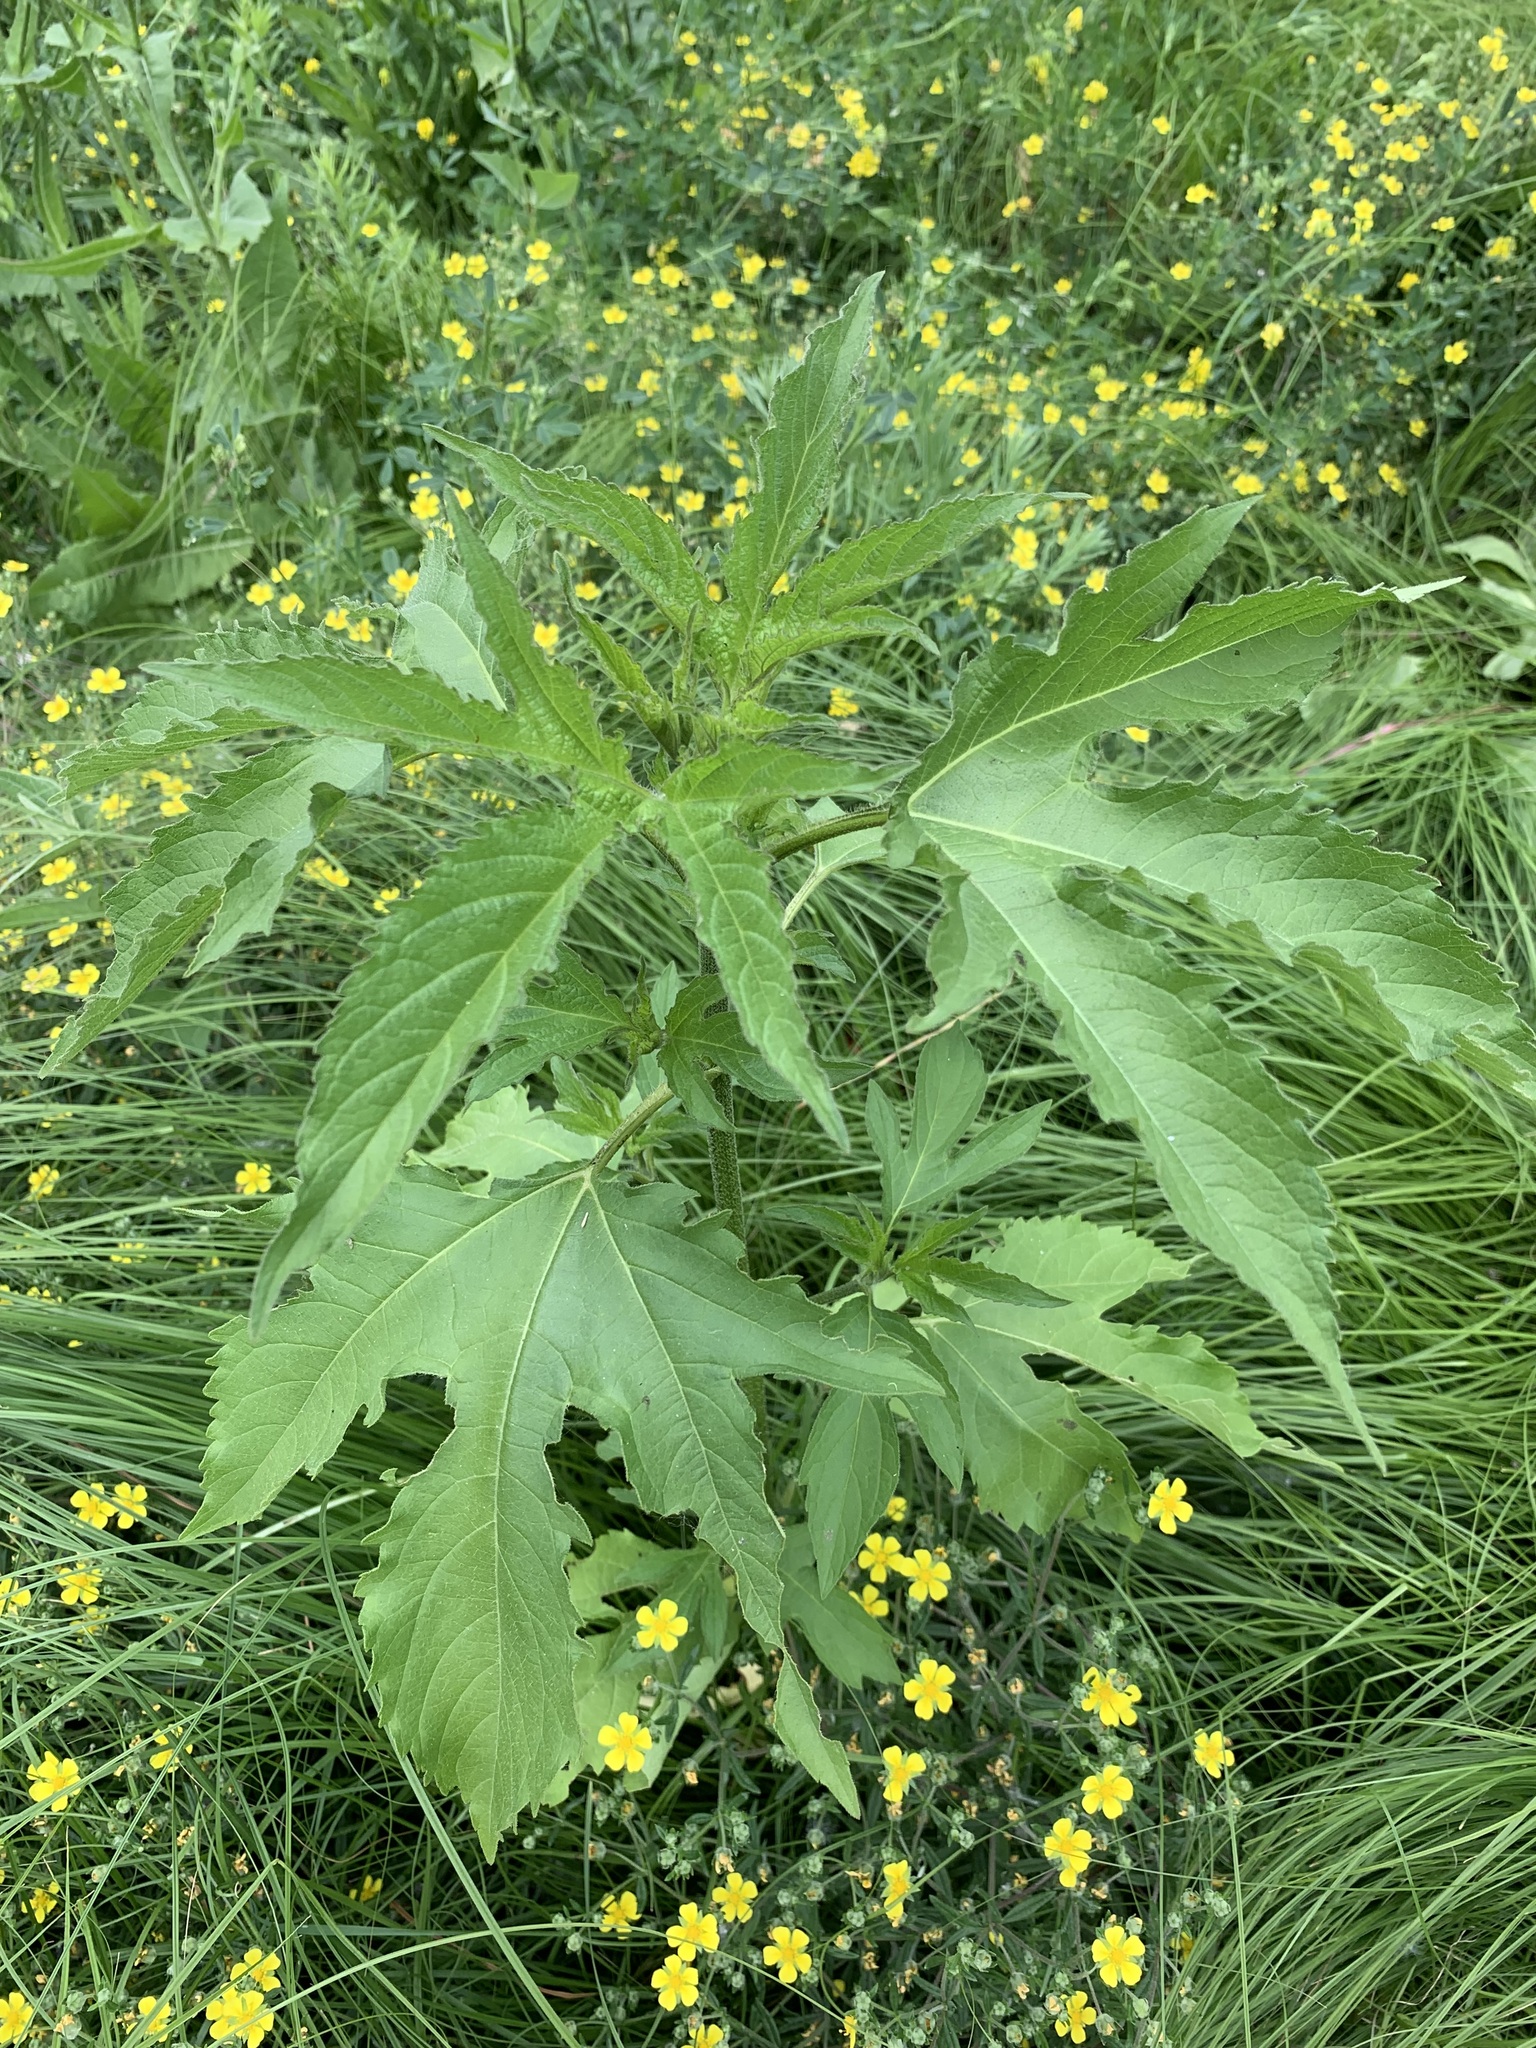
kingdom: Plantae
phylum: Tracheophyta
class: Magnoliopsida
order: Asterales
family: Asteraceae
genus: Ambrosia
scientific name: Ambrosia trifida
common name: Giant ragweed
